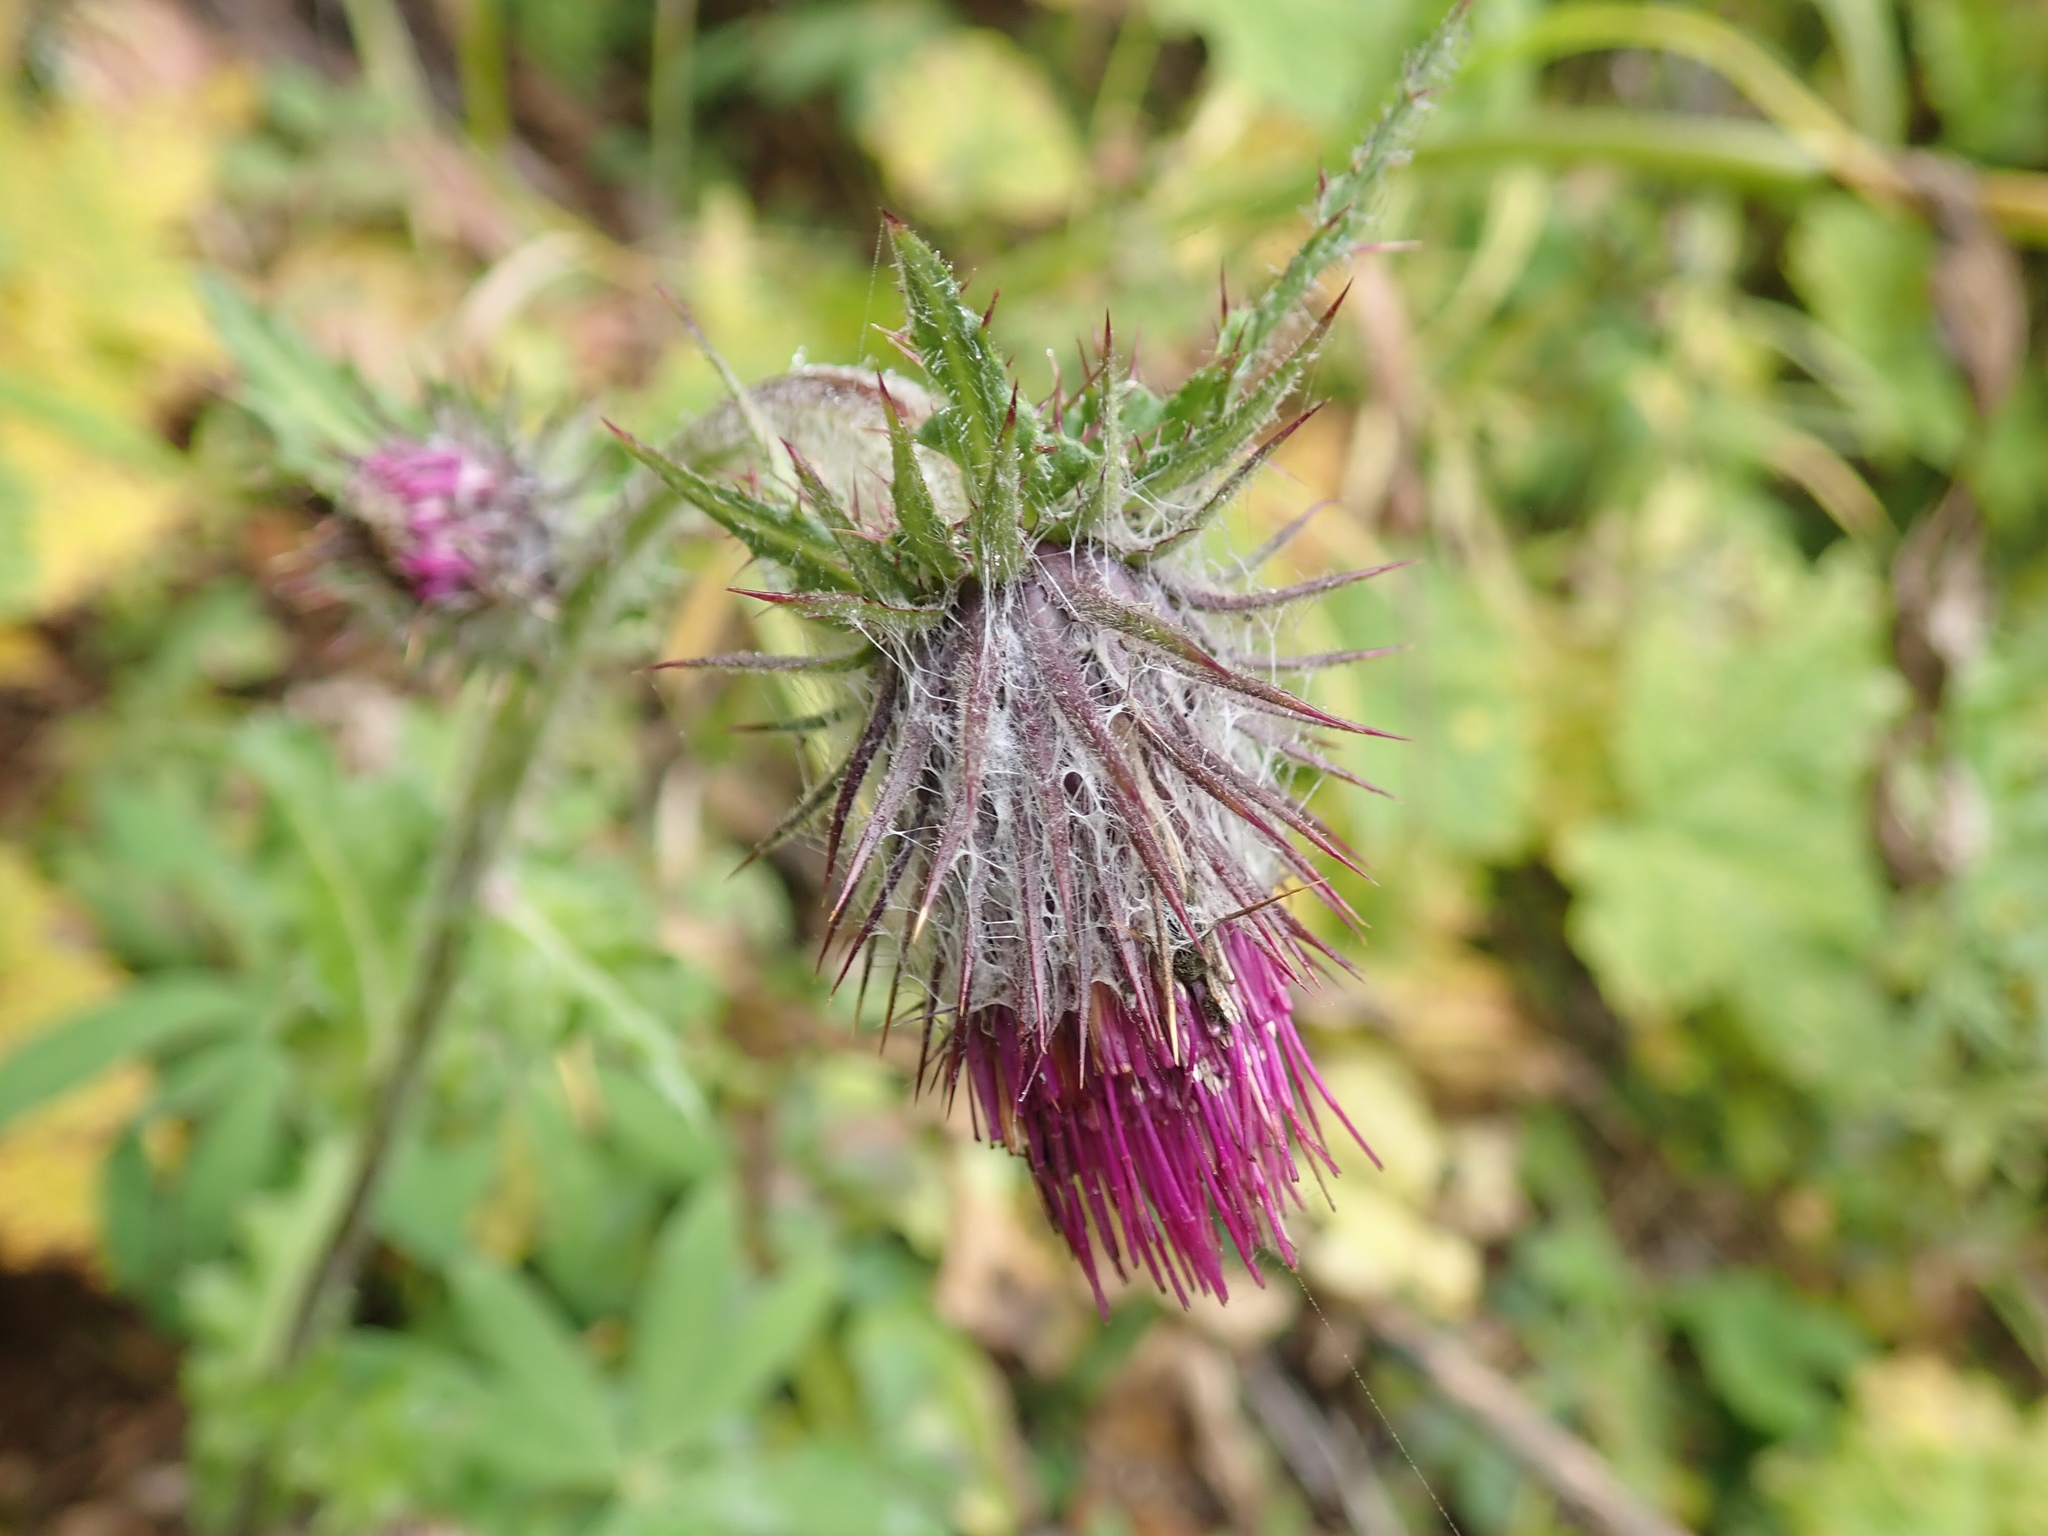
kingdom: Plantae
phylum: Tracheophyta
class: Magnoliopsida
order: Asterales
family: Asteraceae
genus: Cirsium
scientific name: Cirsium edule
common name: Indian thistle
